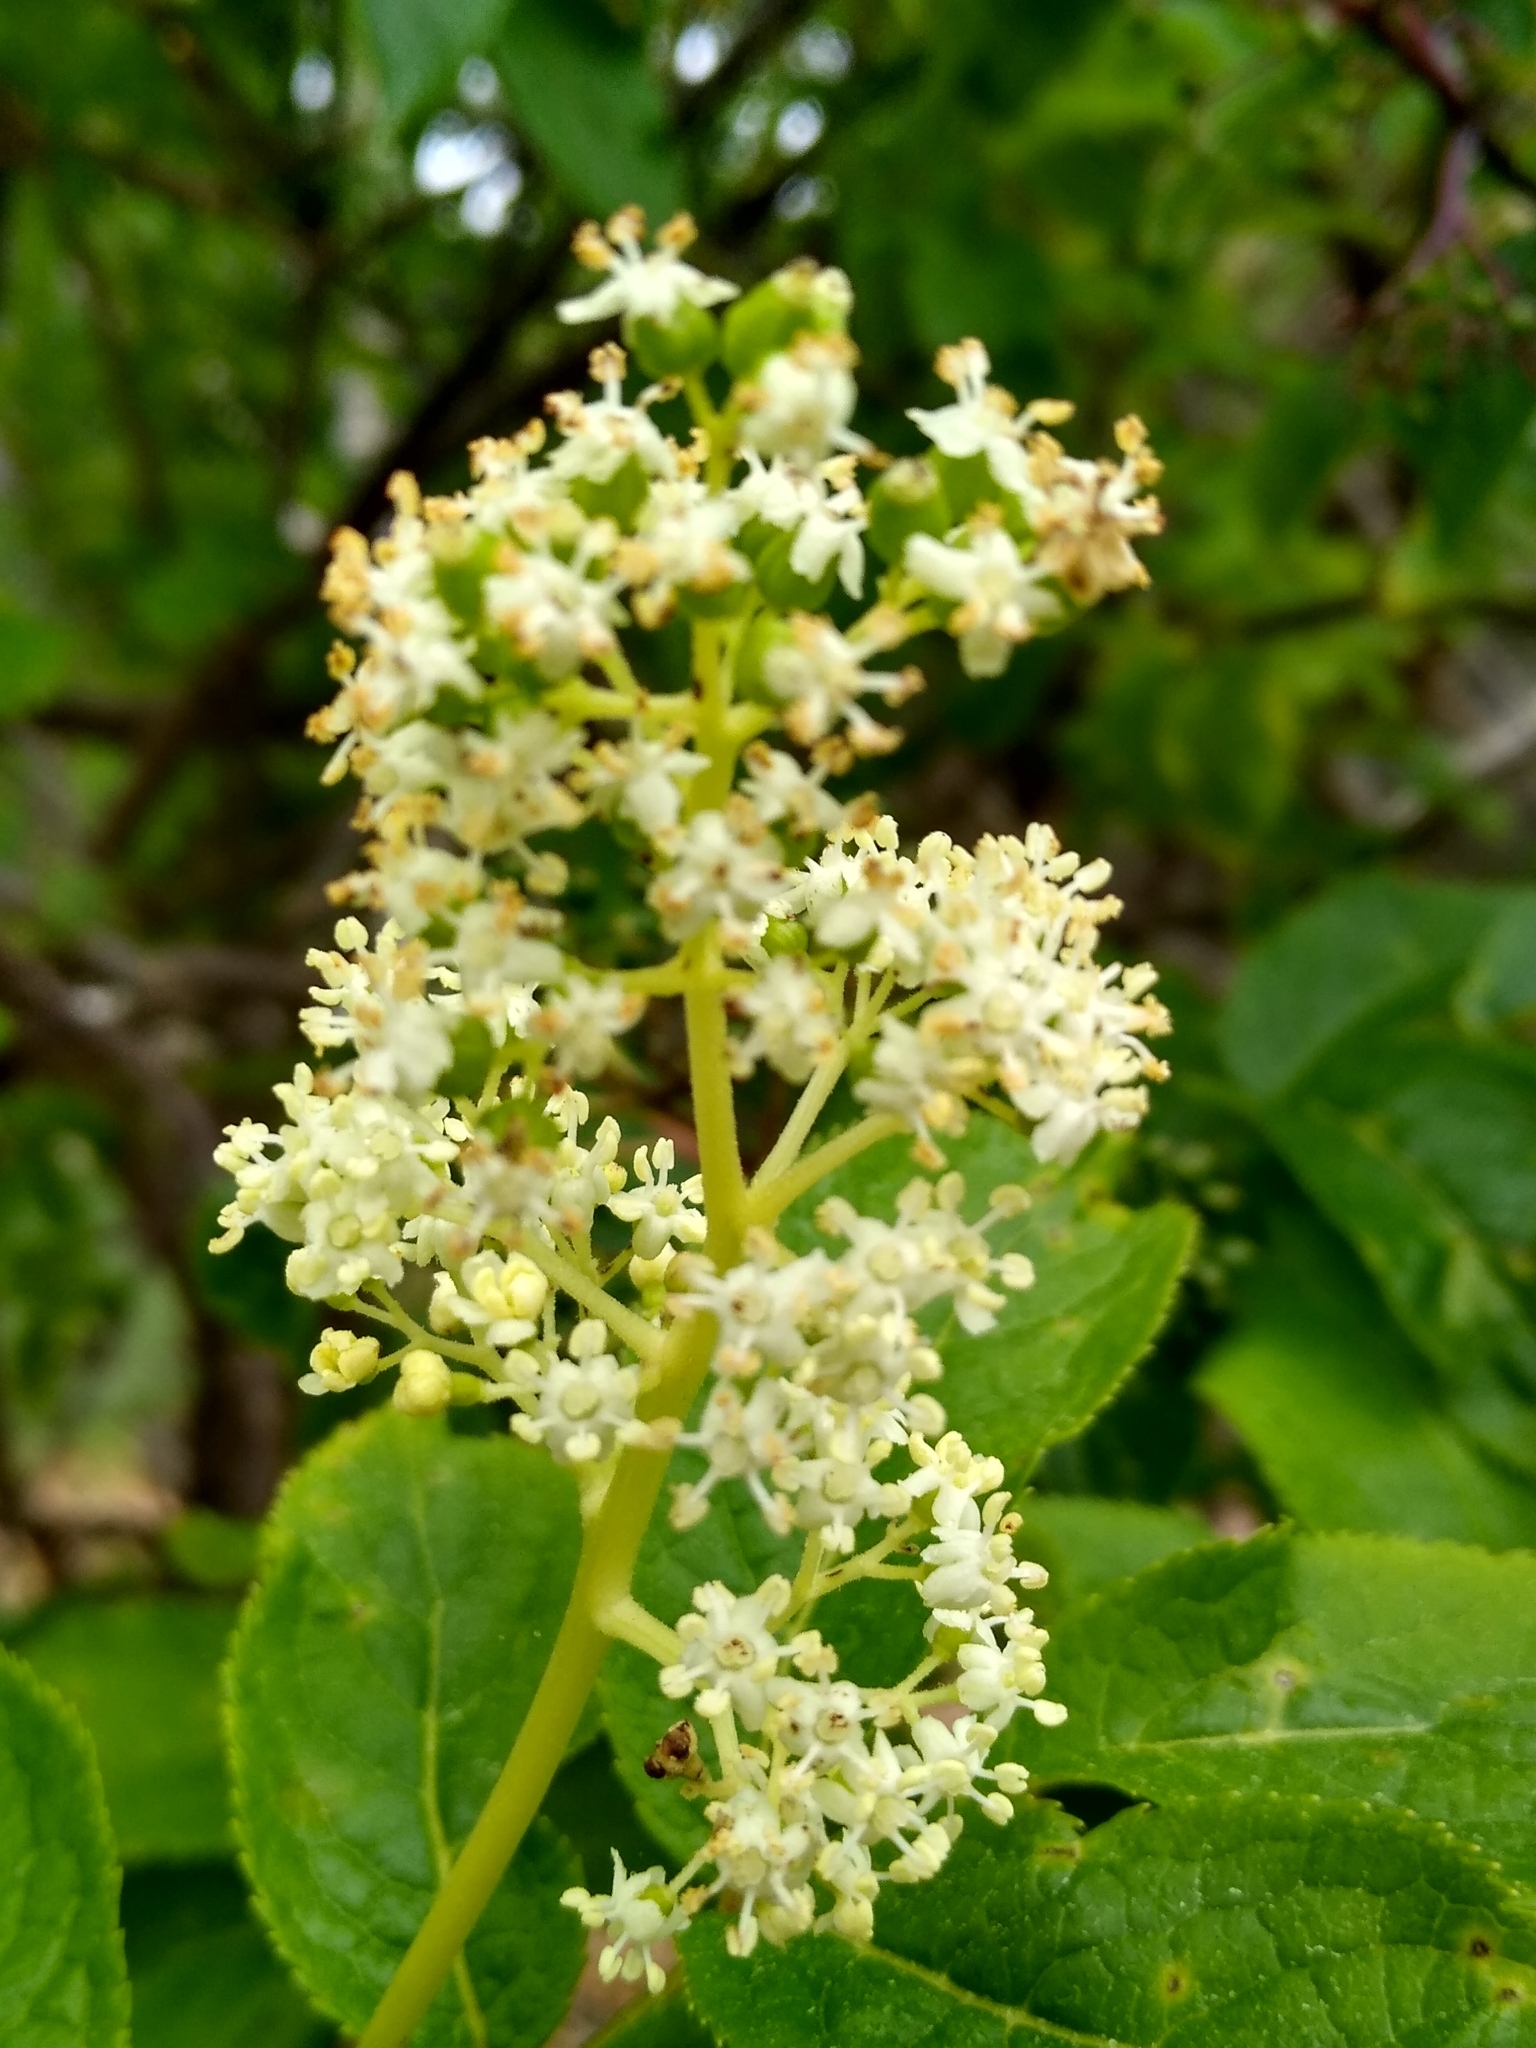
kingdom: Plantae
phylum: Tracheophyta
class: Magnoliopsida
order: Dipsacales
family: Viburnaceae
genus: Sambucus
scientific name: Sambucus racemosa
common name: Red-berried elder
